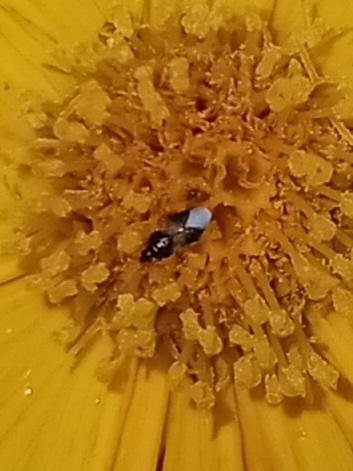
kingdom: Animalia
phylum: Arthropoda
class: Insecta
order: Hemiptera
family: Anthocoridae
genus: Orius
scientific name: Orius insidiosus
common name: Insidious flower bug
